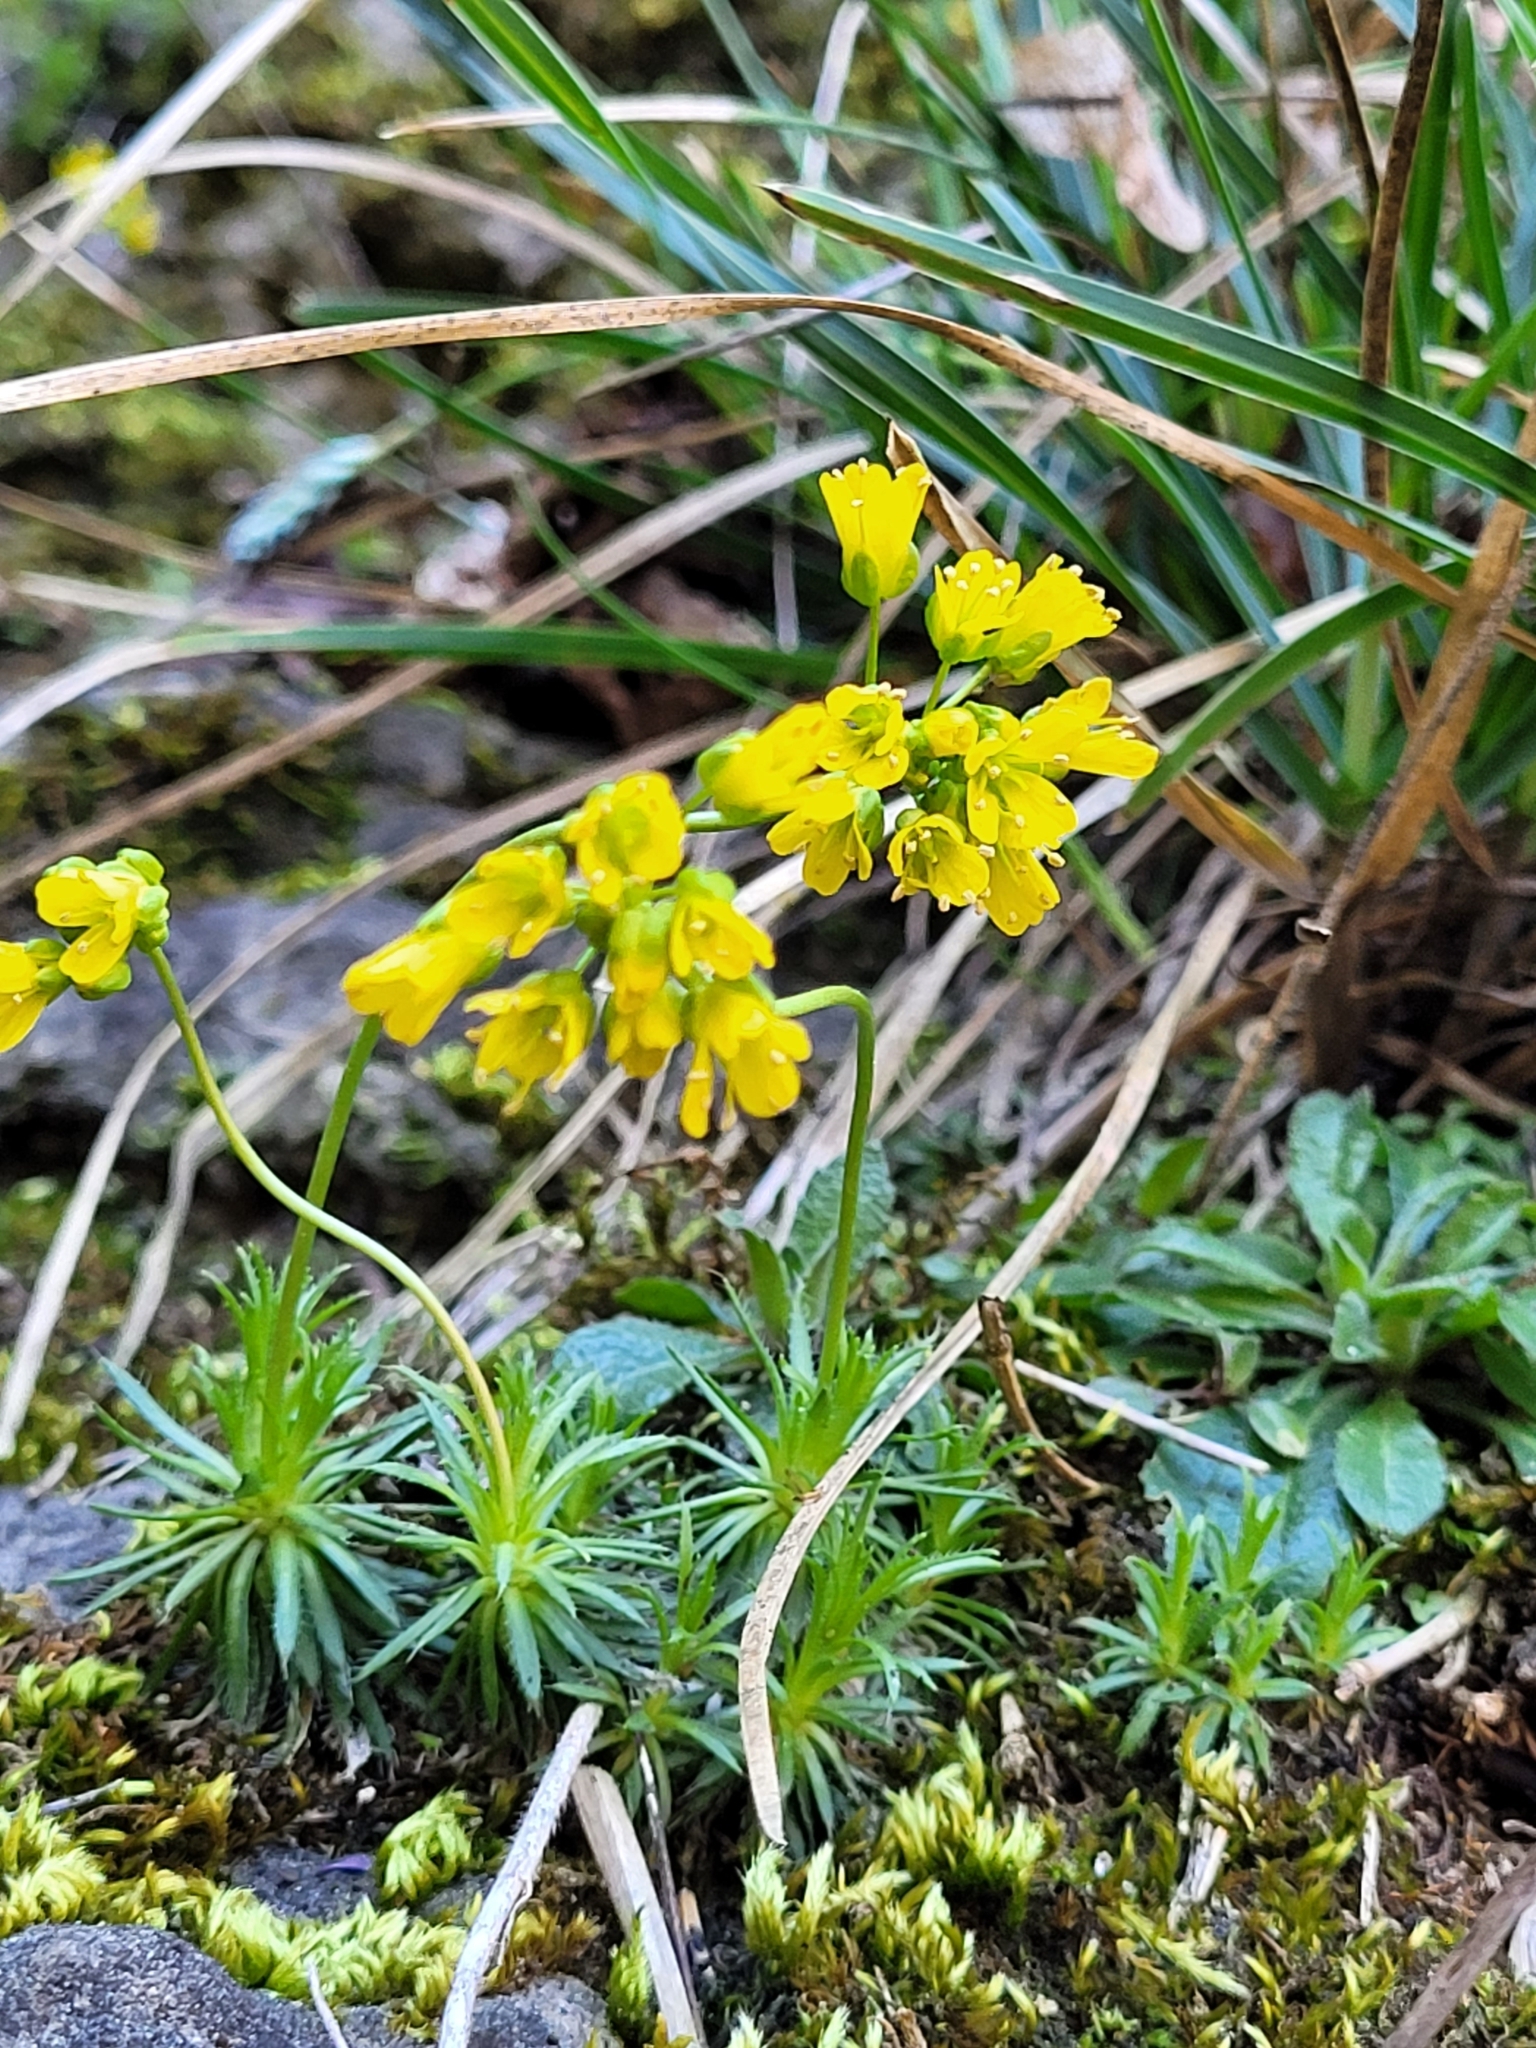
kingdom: Plantae
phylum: Tracheophyta
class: Magnoliopsida
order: Brassicales
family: Brassicaceae
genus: Draba
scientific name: Draba aizoides
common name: Yellow whitlowgrass
